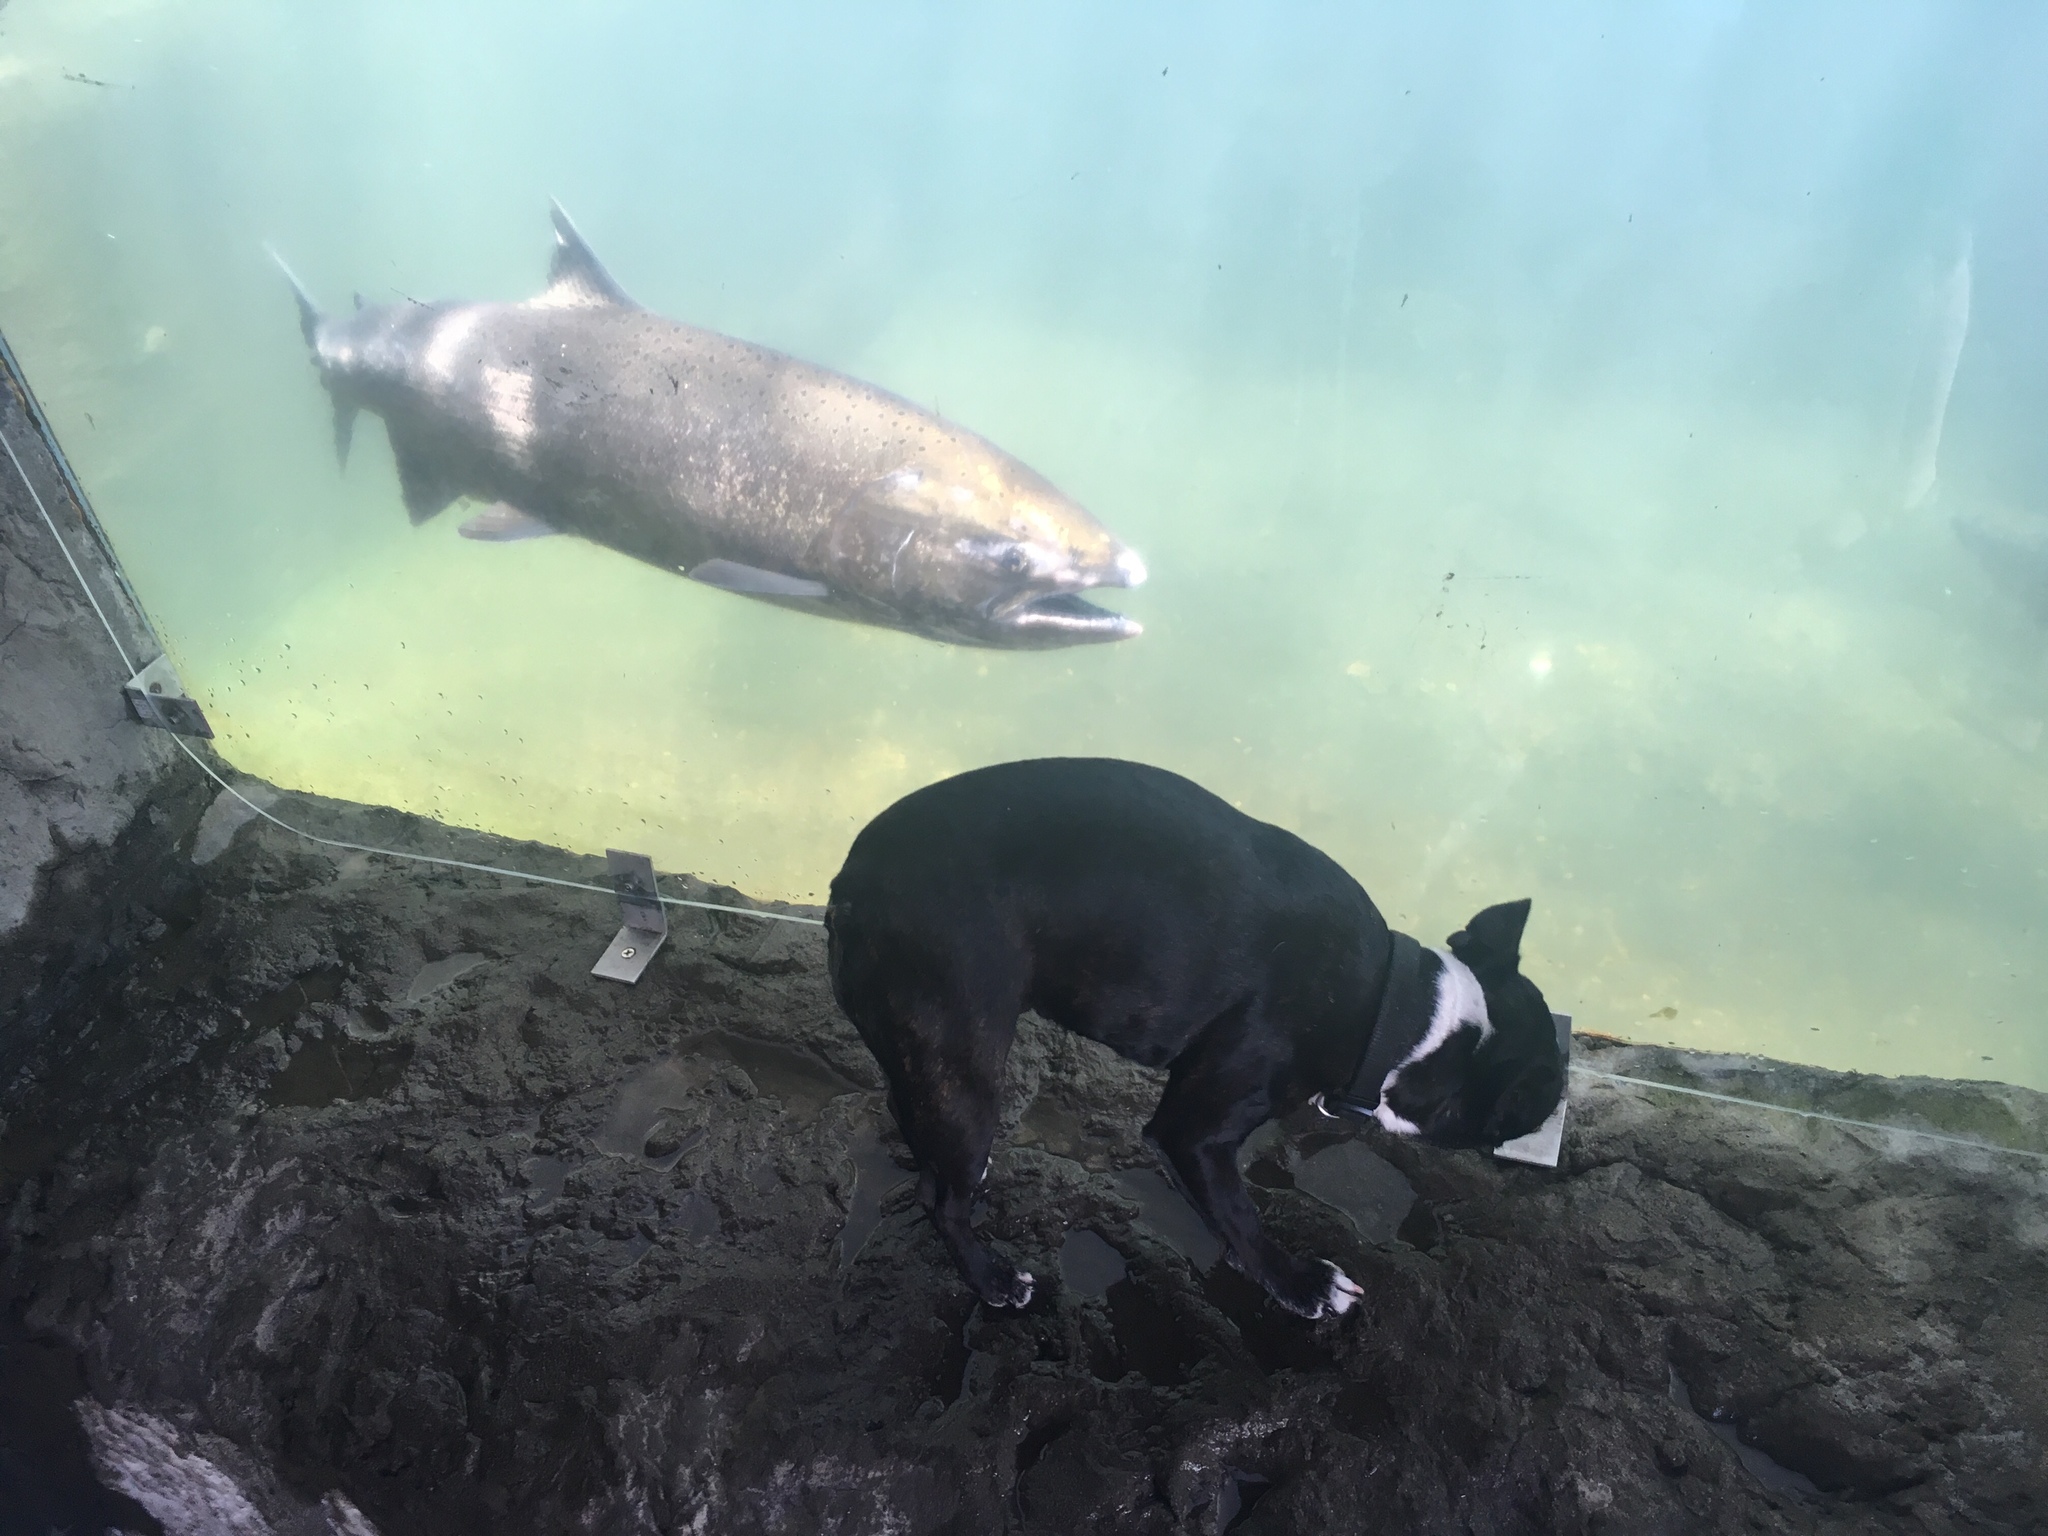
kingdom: Animalia
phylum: Chordata
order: Salmoniformes
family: Salmonidae
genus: Oncorhynchus
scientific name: Oncorhynchus tshawytscha
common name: Chinook salmon
